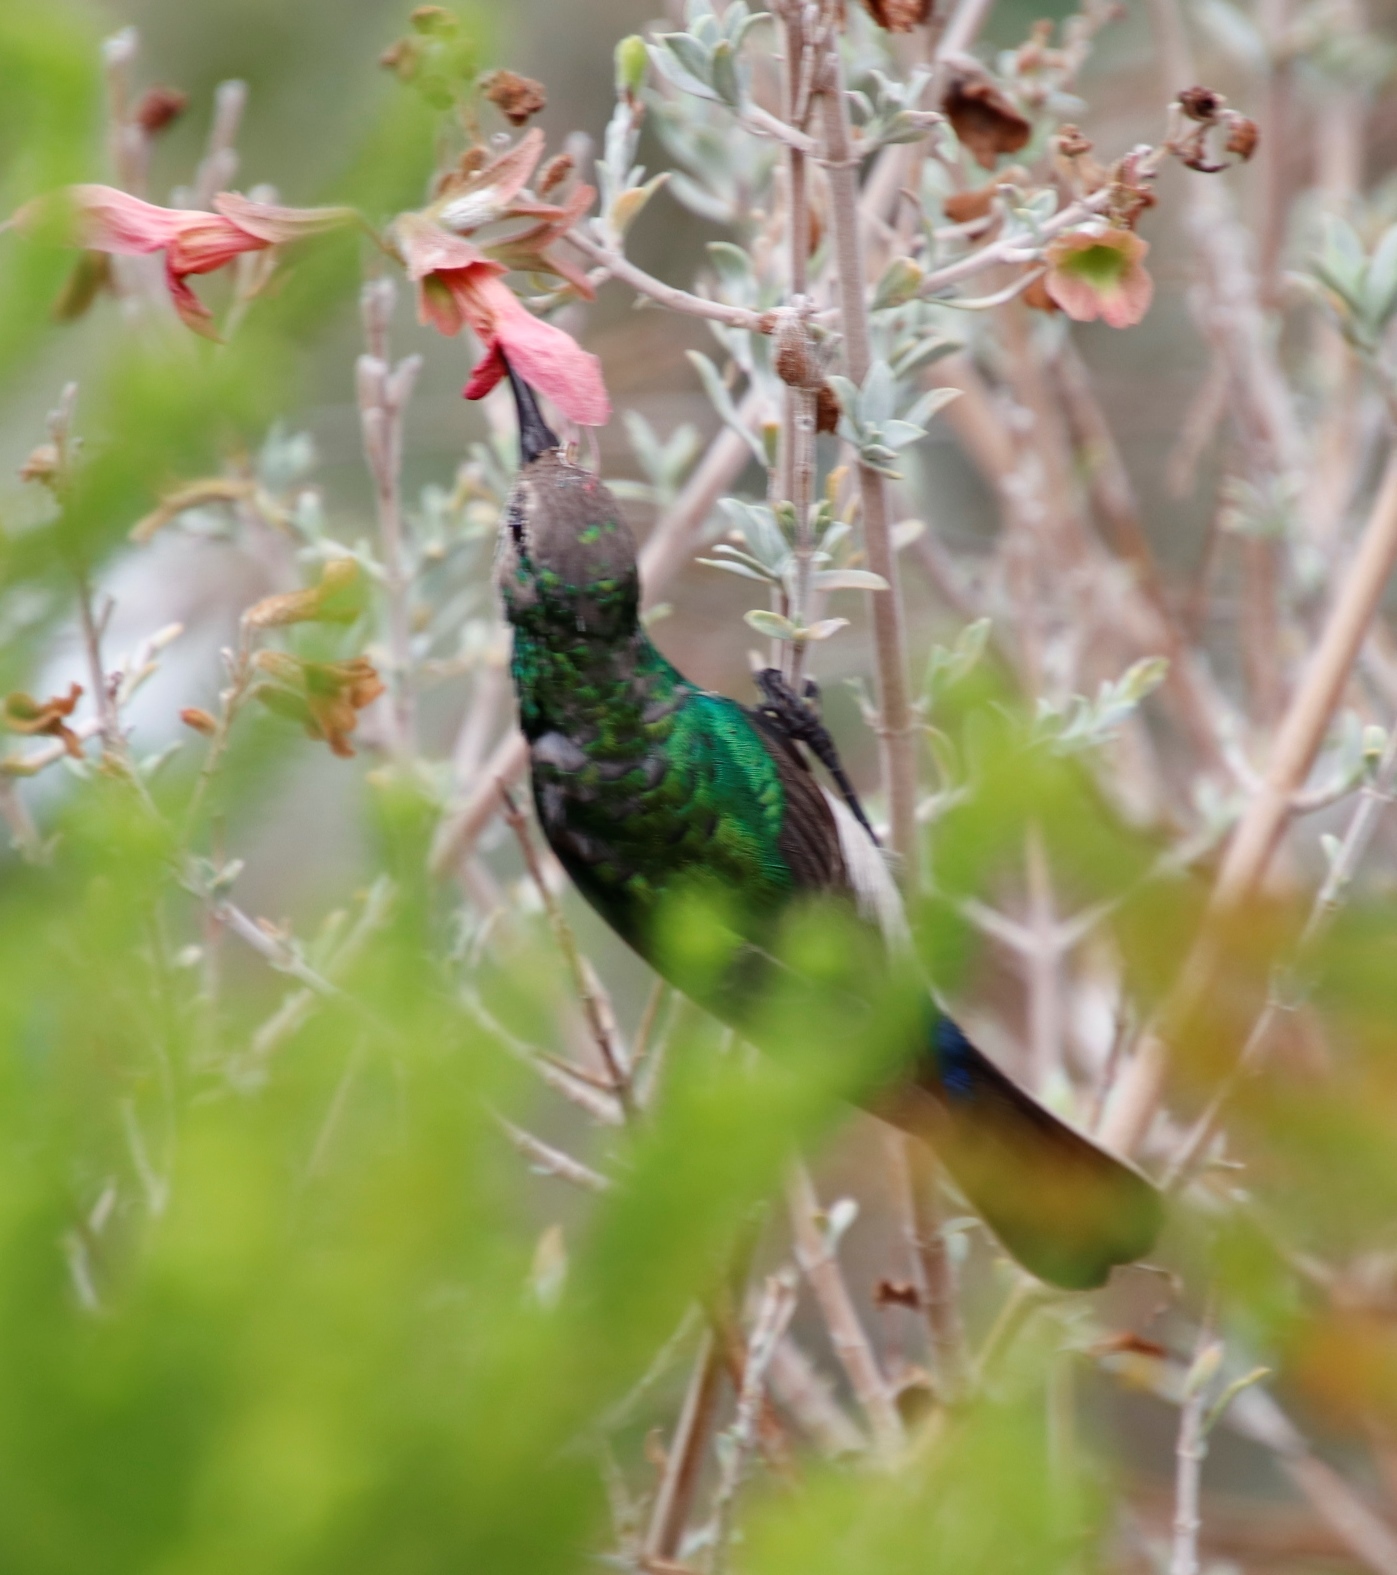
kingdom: Animalia
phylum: Chordata
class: Aves
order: Passeriformes
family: Nectariniidae
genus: Cinnyris
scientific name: Cinnyris chalybeus
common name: Southern double-collared sunbird
